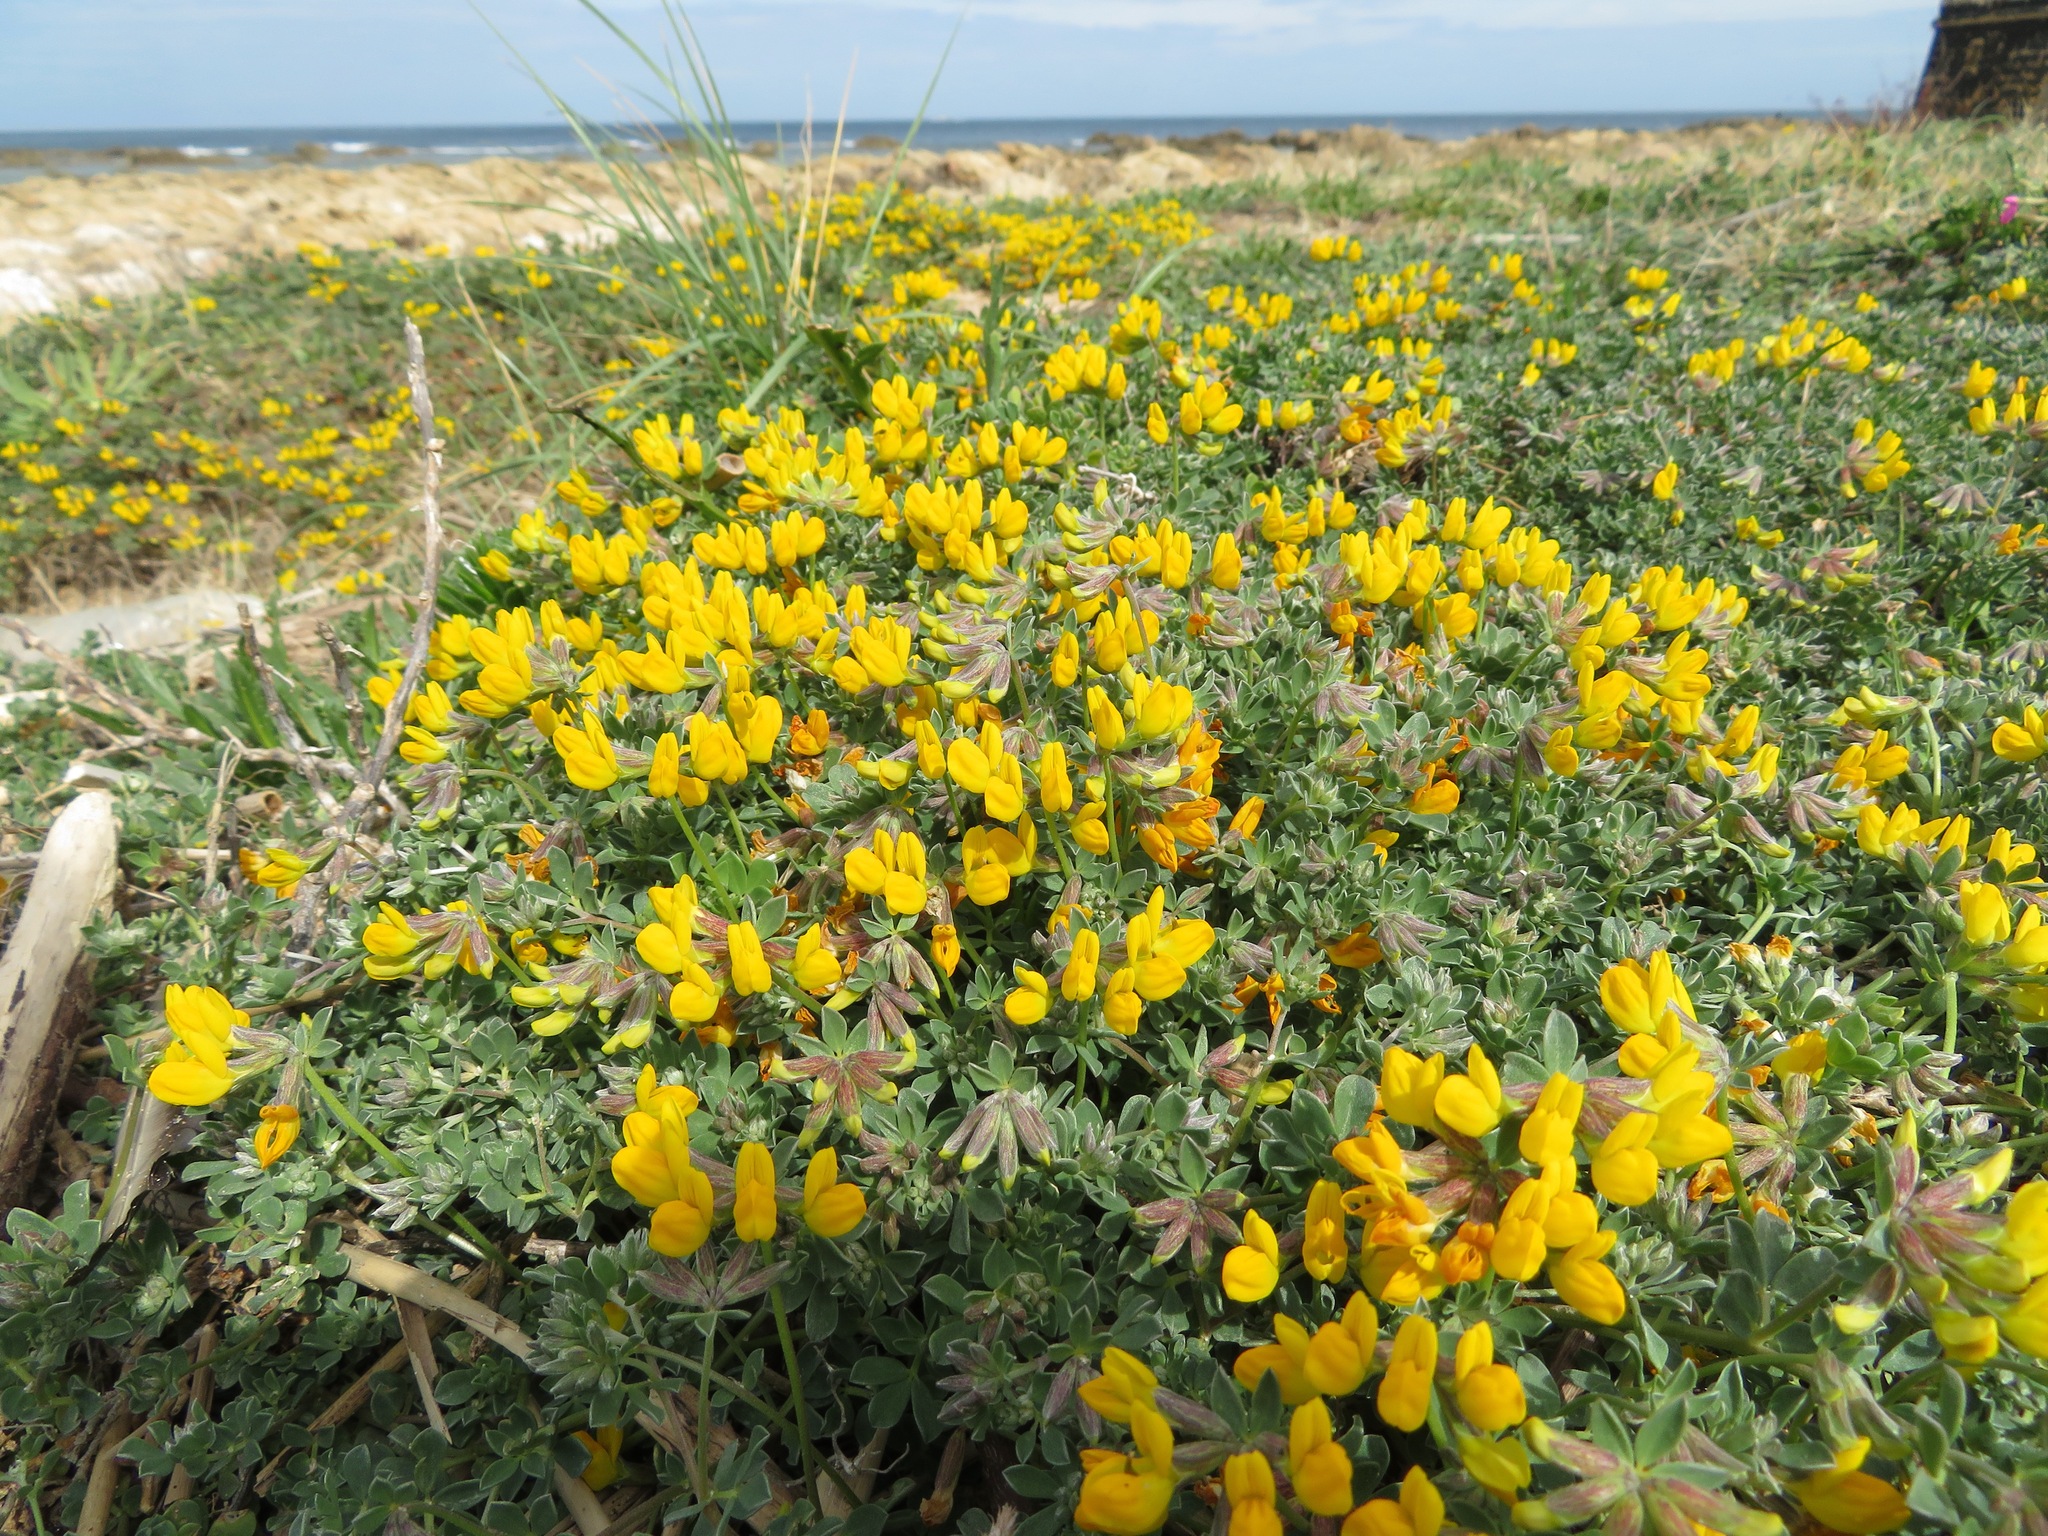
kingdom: Plantae
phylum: Tracheophyta
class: Magnoliopsida
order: Fabales
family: Fabaceae
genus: Lotus
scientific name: Lotus cytisoides
